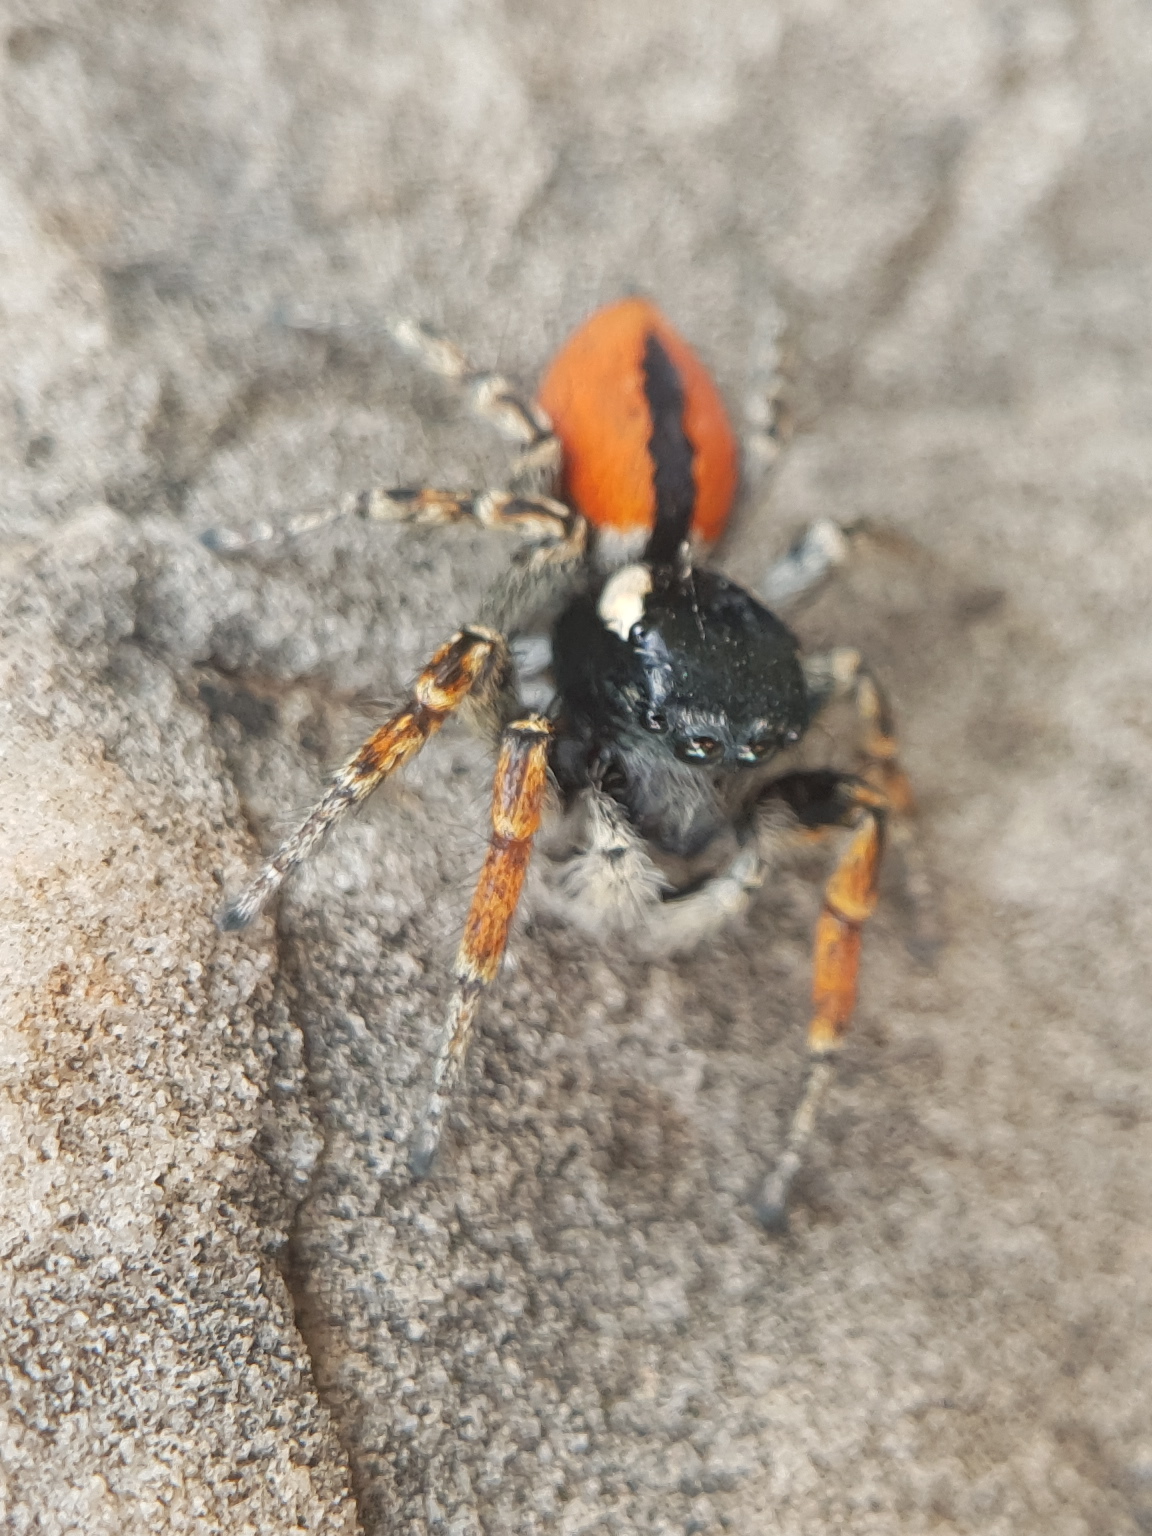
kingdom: Animalia
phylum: Arthropoda
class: Arachnida
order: Araneae
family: Salticidae
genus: Philaeus
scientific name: Philaeus chrysops
